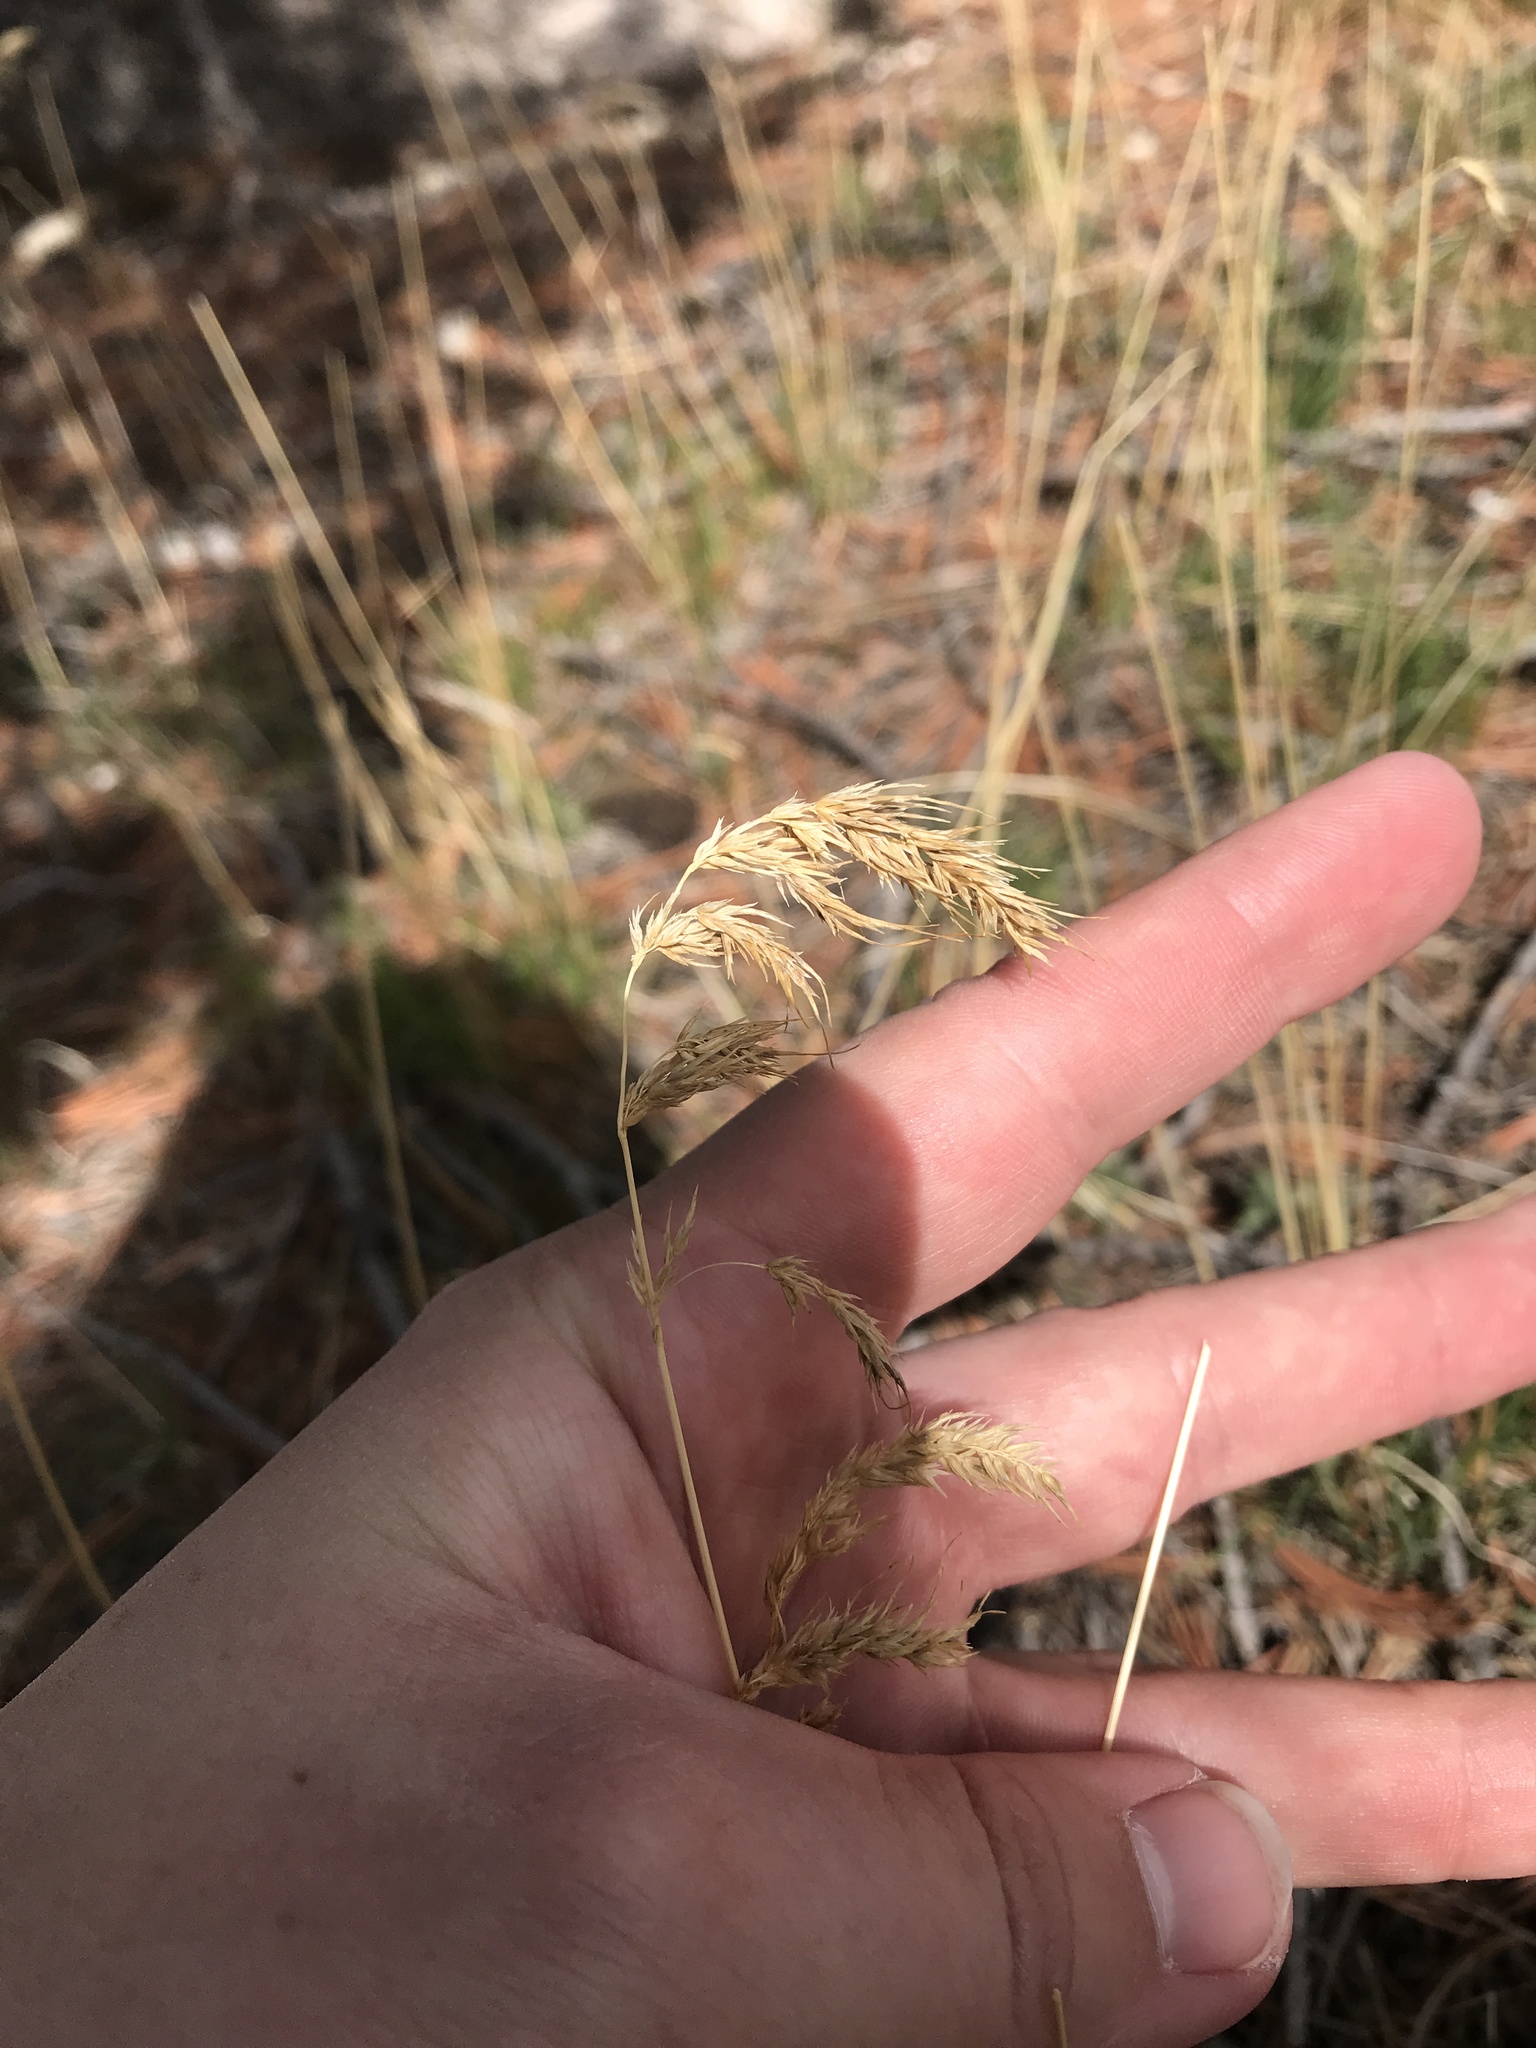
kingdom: Plantae
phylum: Tracheophyta
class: Liliopsida
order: Poales
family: Poaceae
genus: Poa
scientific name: Poa bulbosa
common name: Bulbous bluegrass
